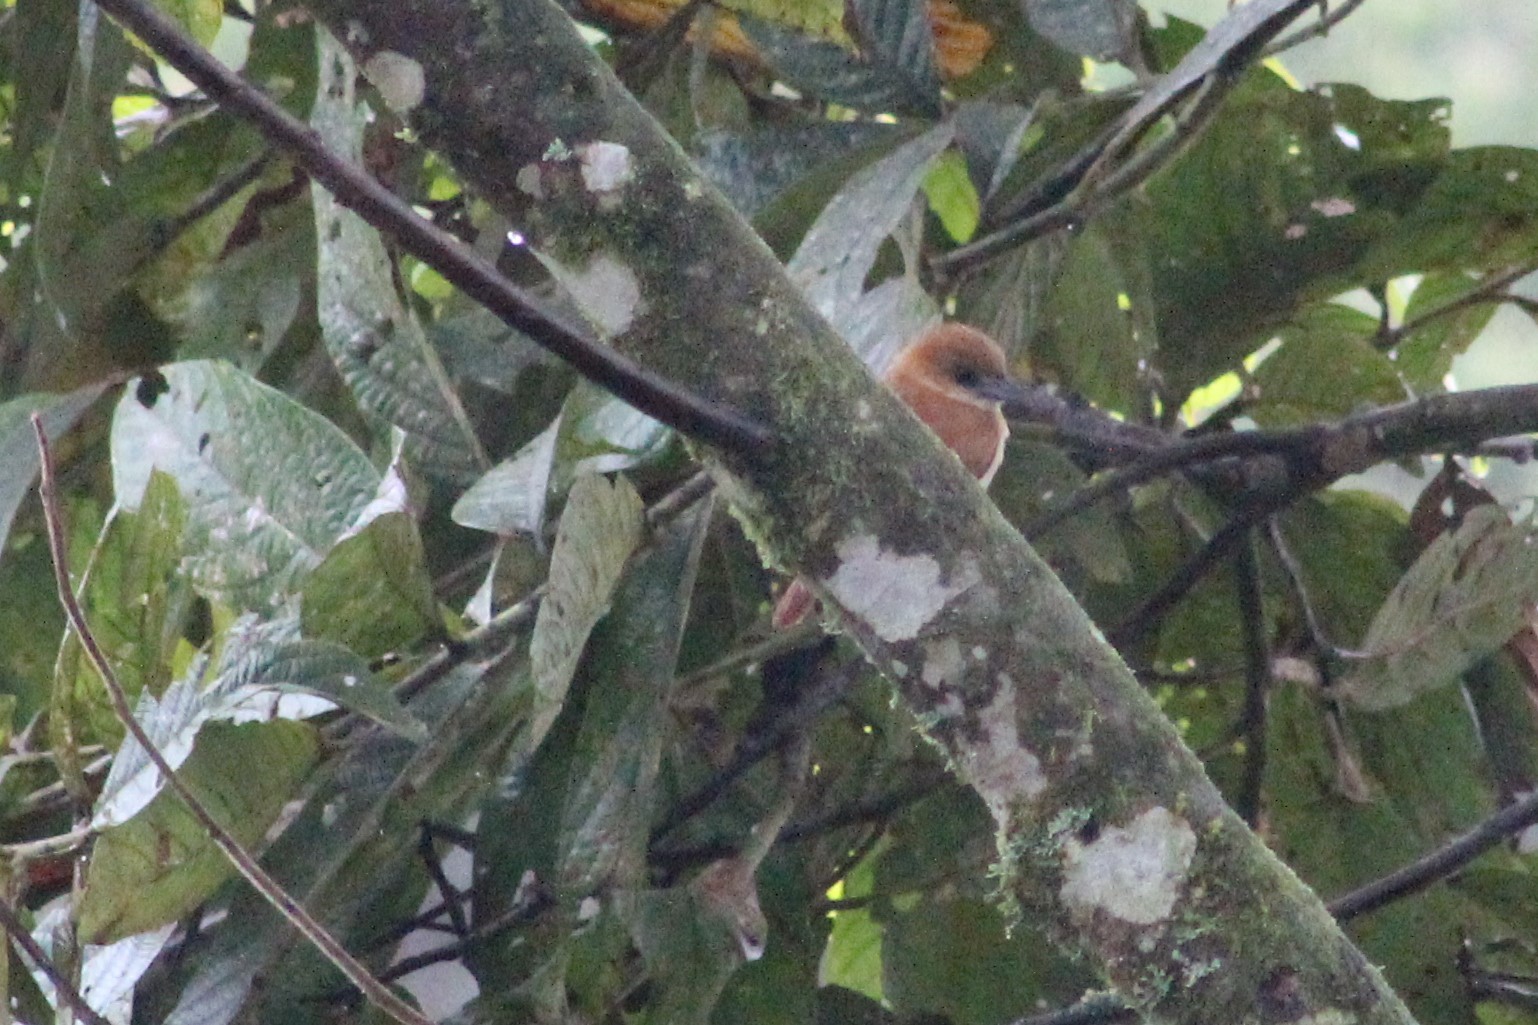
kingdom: Animalia
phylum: Chordata
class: Aves
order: Passeriformes
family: Cotingidae
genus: Pachyramphus
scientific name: Pachyramphus homochrous
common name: One-colored becard
